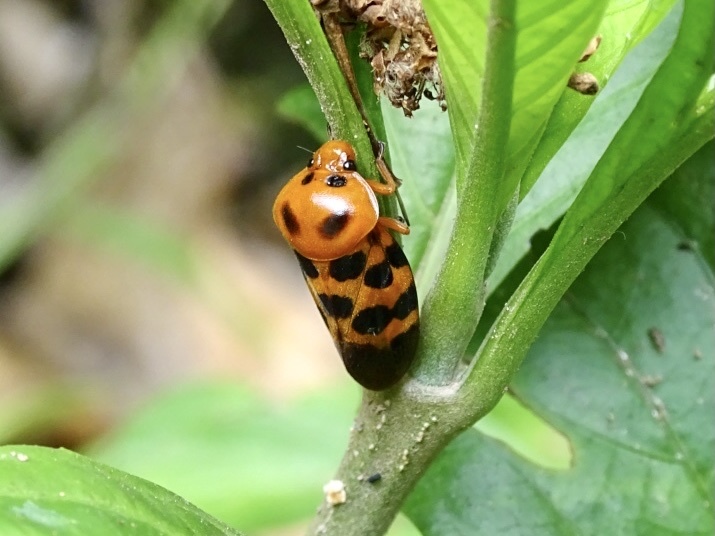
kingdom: Animalia
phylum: Arthropoda
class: Insecta
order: Hemiptera
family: Cercopidae
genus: Cosmoscarta
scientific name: Cosmoscarta dorsimacula
